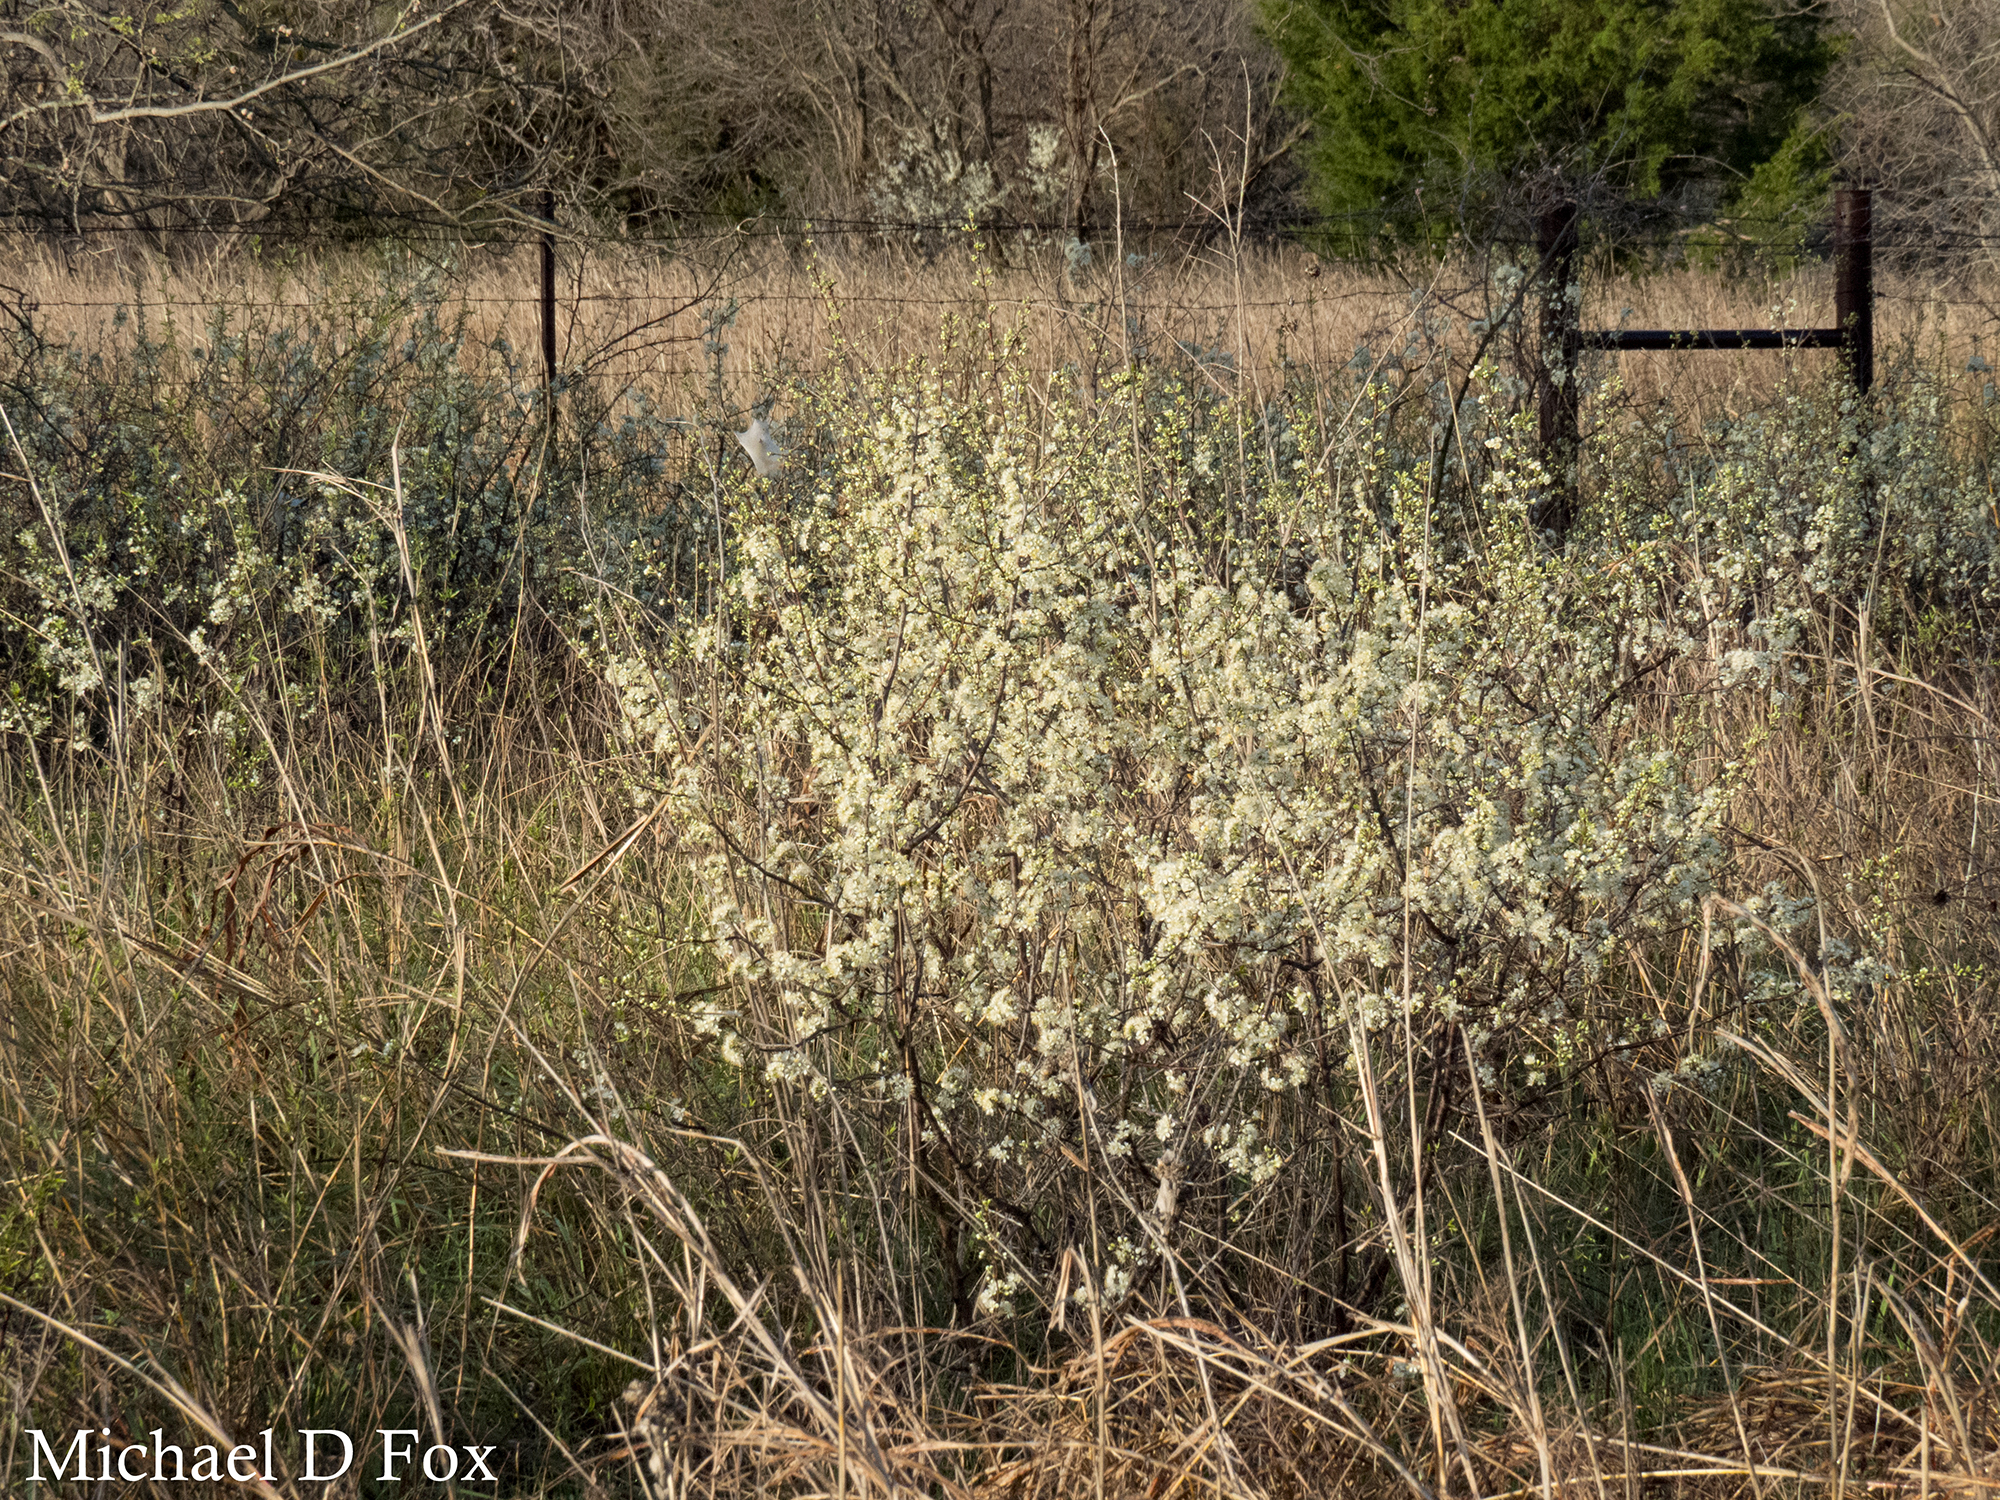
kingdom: Plantae
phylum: Tracheophyta
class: Magnoliopsida
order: Rosales
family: Rosaceae
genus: Prunus
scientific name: Prunus rivularis
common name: Creek plum
